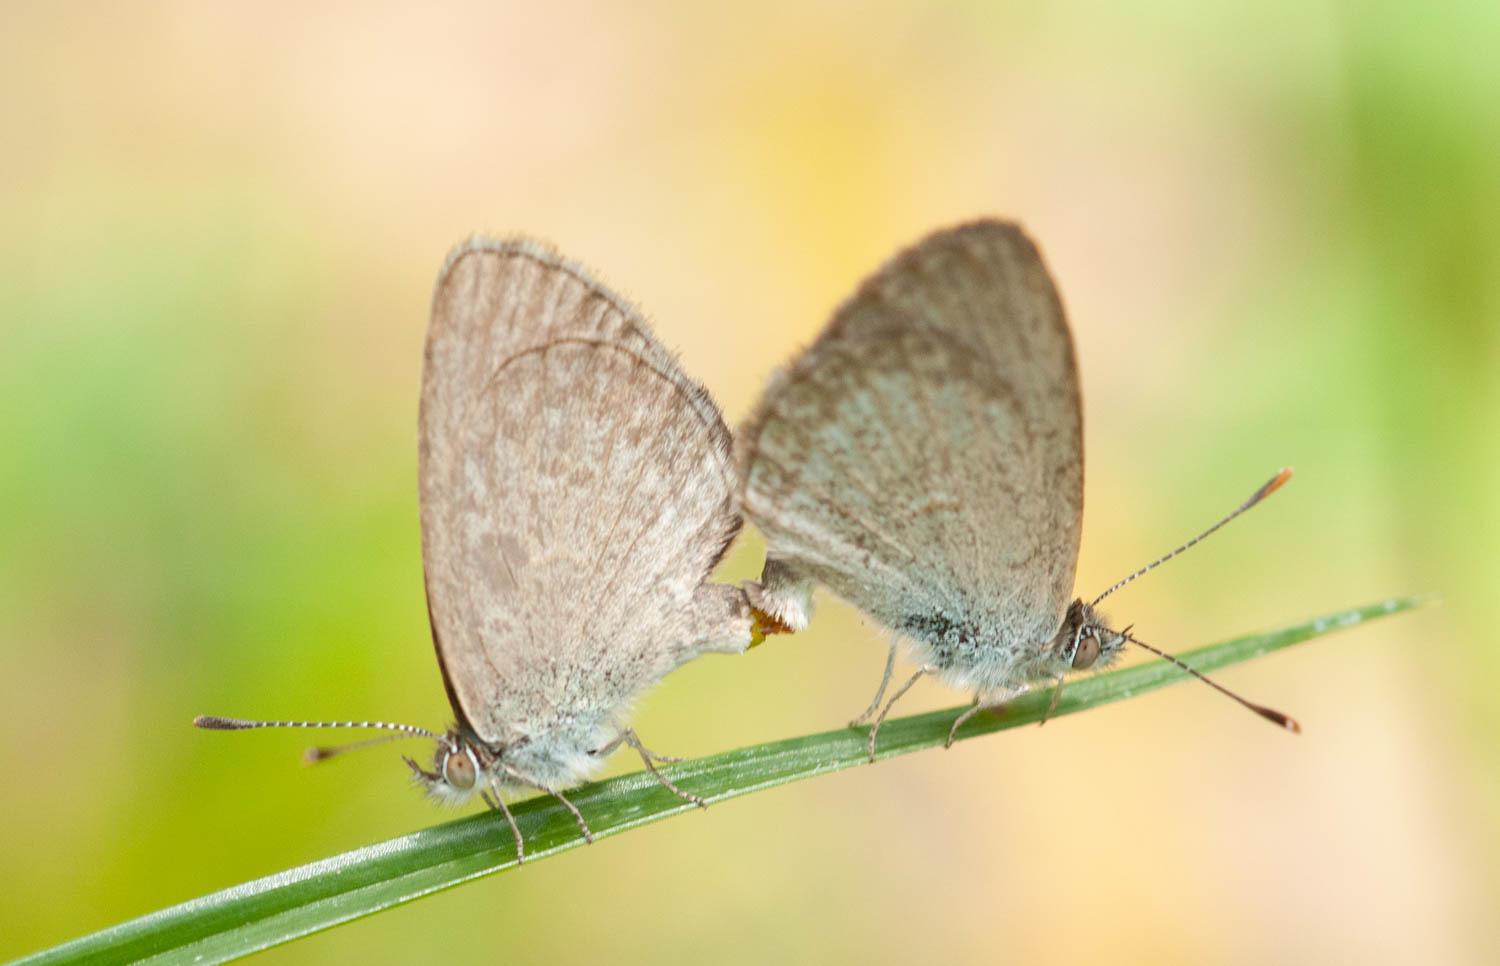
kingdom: Animalia
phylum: Arthropoda
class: Insecta
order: Lepidoptera
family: Lycaenidae
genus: Zizina
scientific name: Zizina labradus
